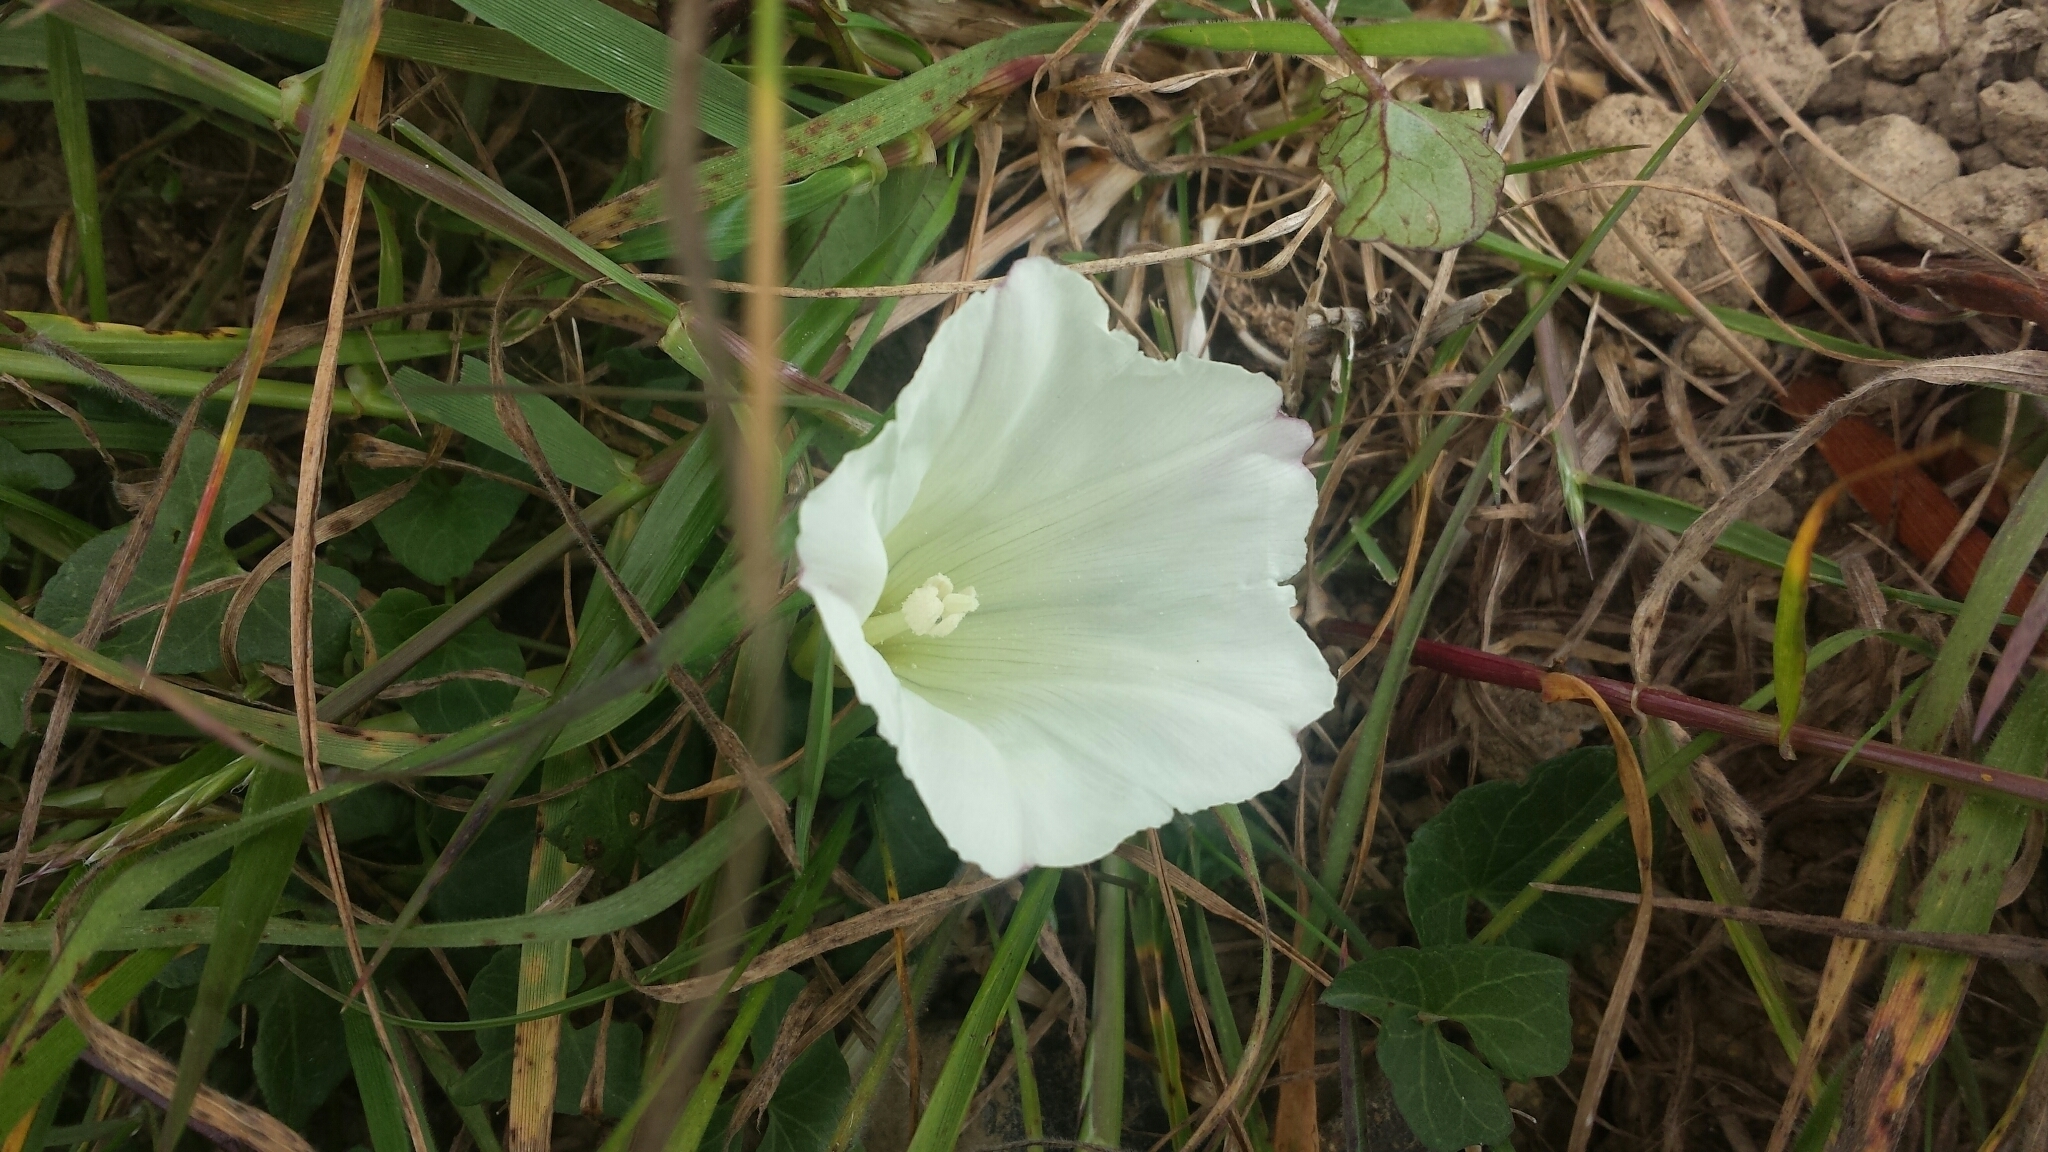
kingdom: Plantae
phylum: Tracheophyta
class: Magnoliopsida
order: Solanales
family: Convolvulaceae
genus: Calystegia
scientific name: Calystegia purpurata
